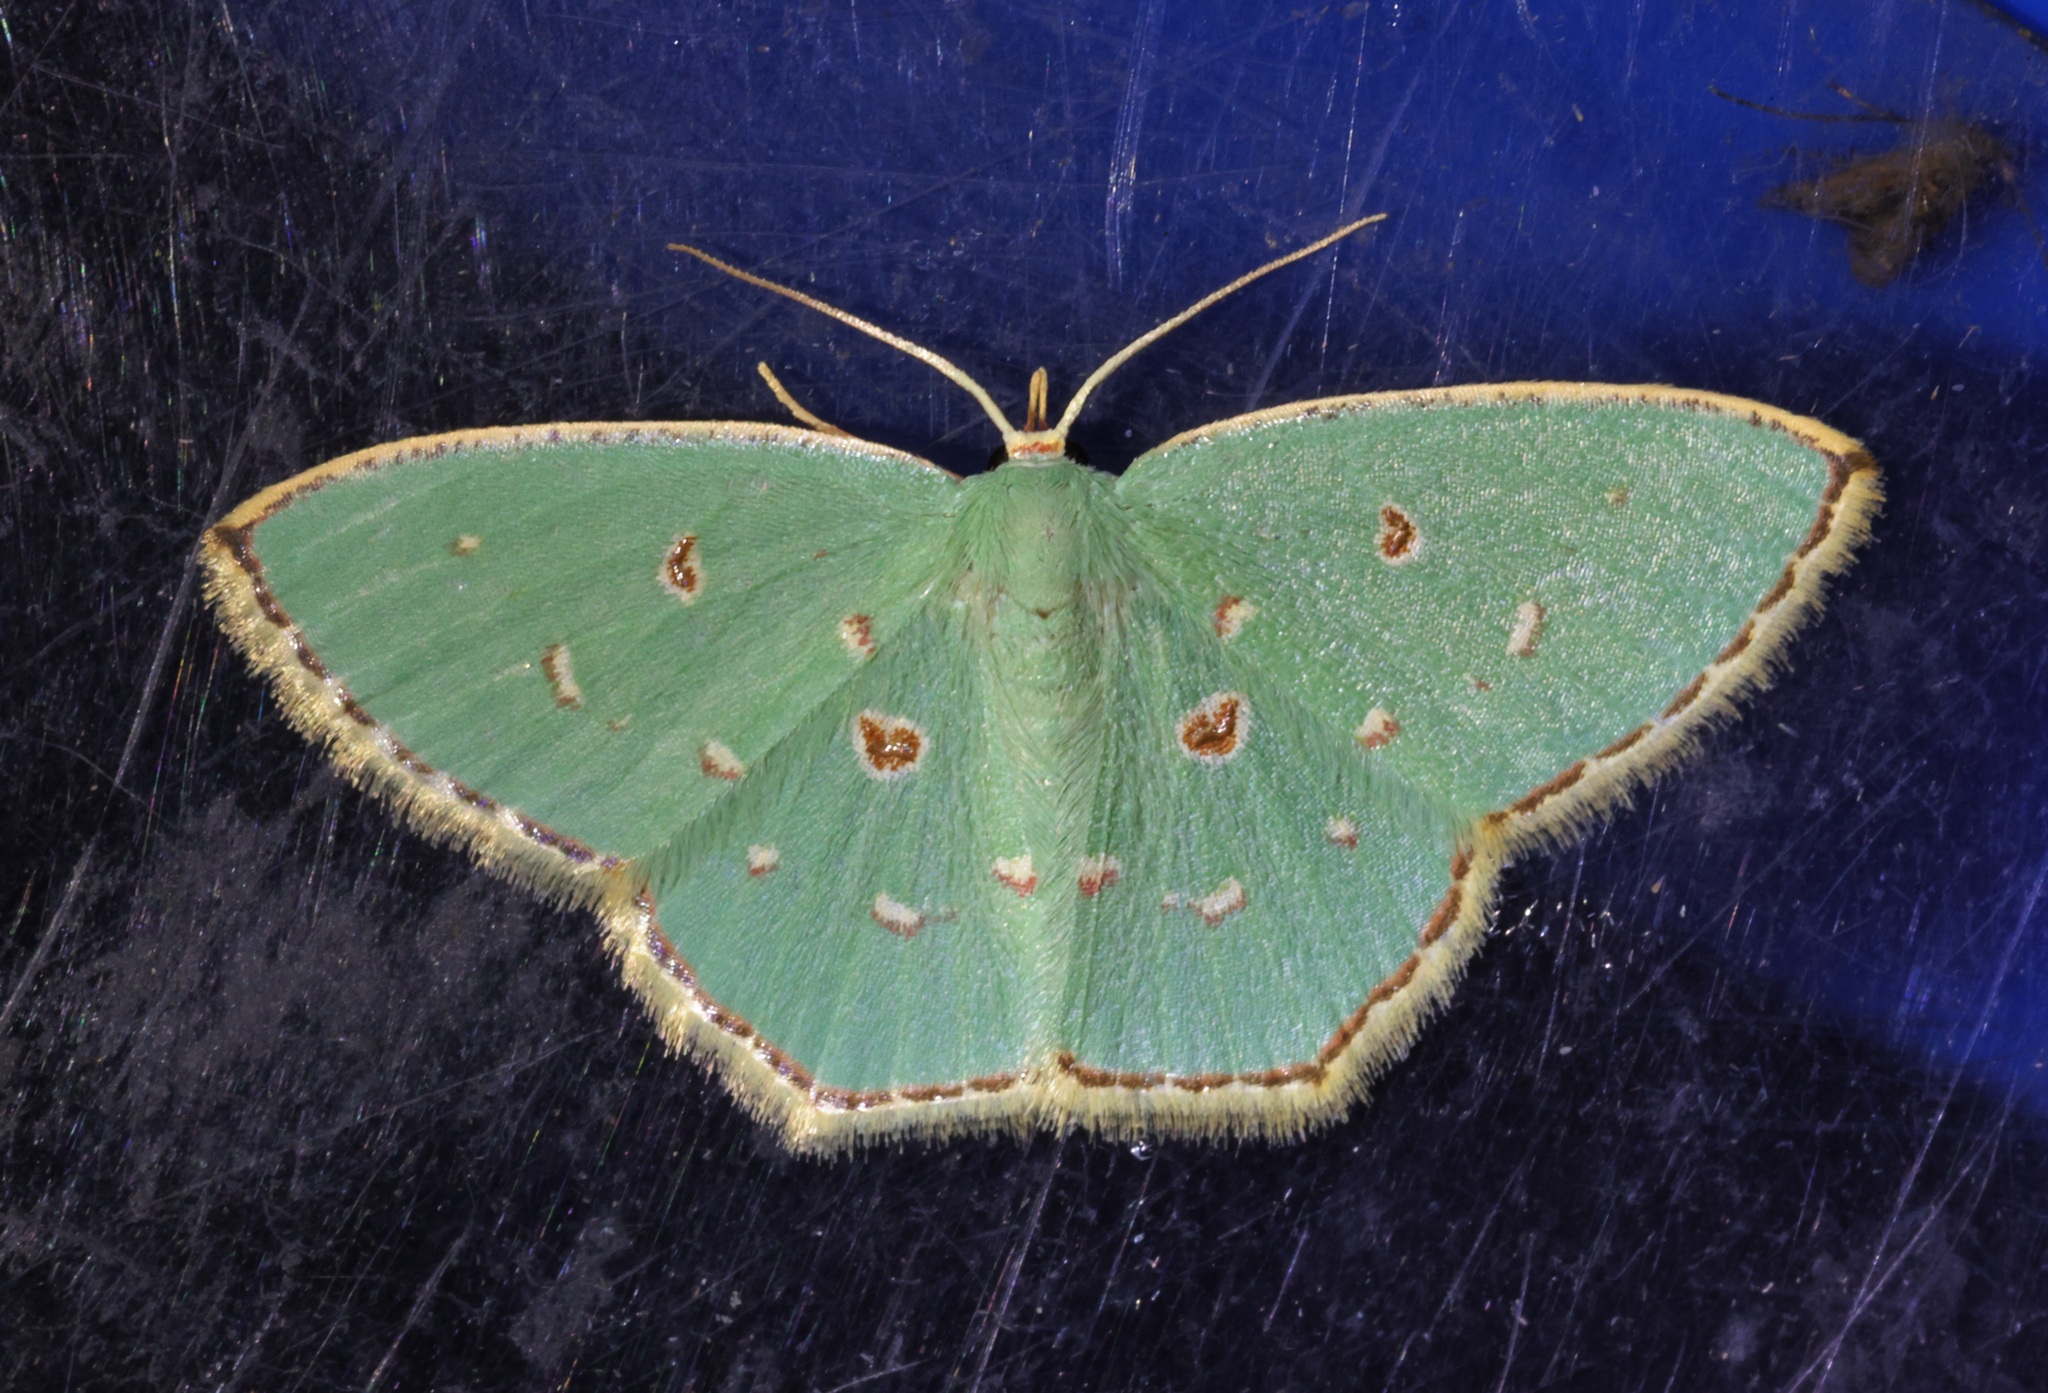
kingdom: Animalia
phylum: Arthropoda
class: Insecta
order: Lepidoptera
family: Geometridae
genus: Comostola
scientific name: Comostola meritaria
